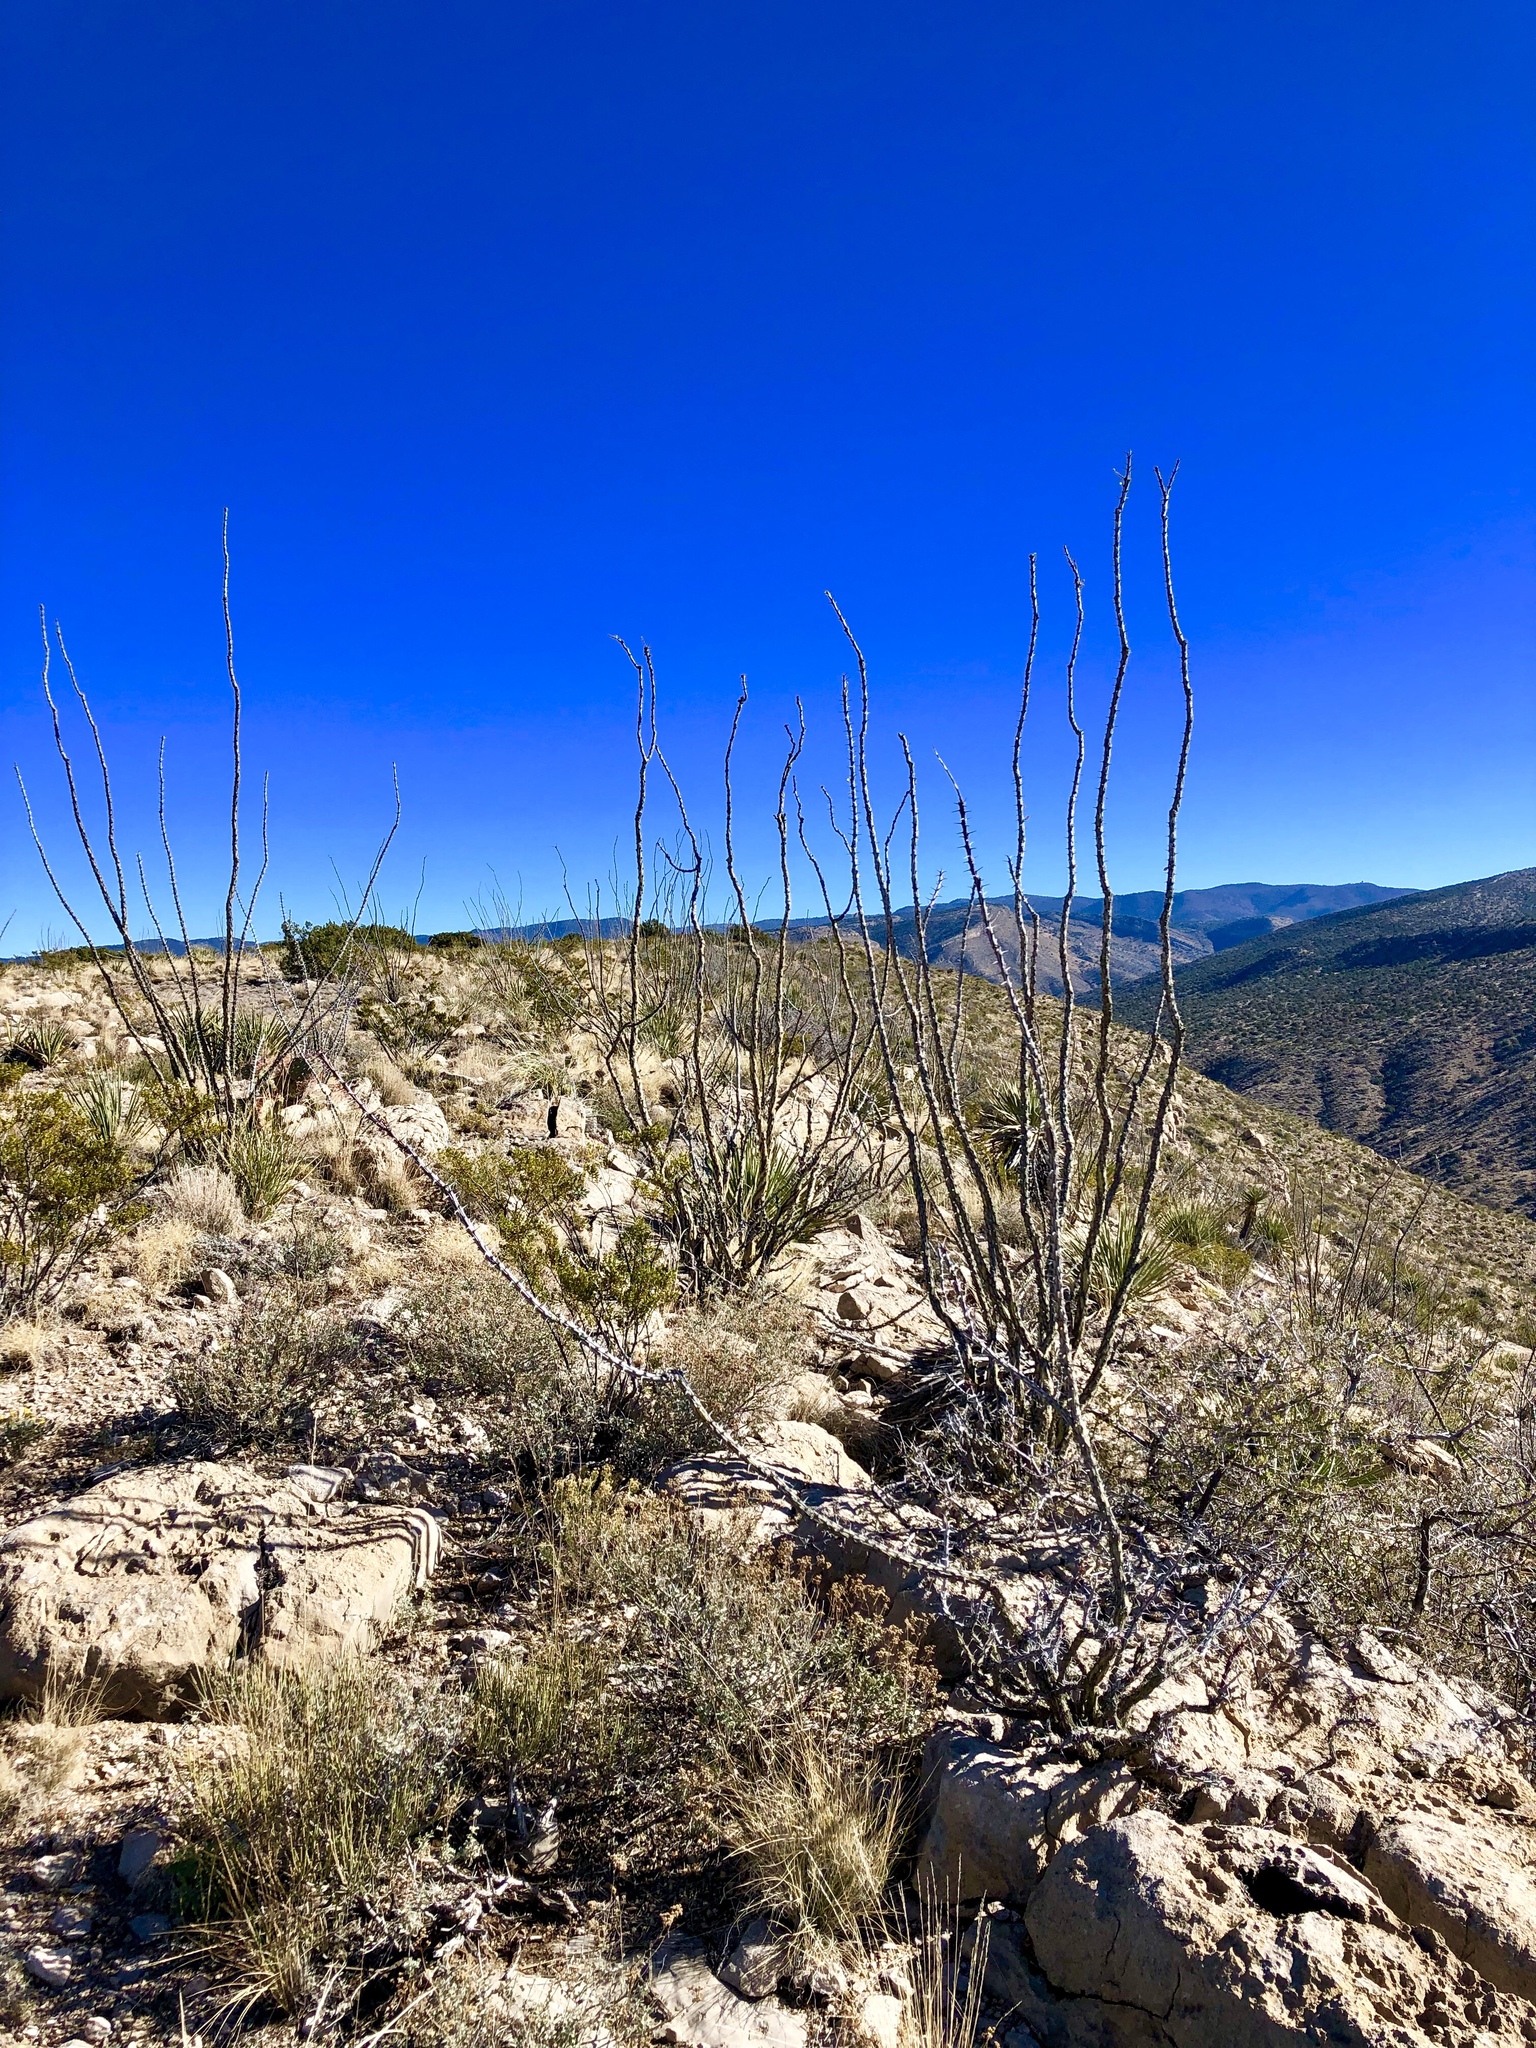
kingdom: Plantae
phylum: Tracheophyta
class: Magnoliopsida
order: Ericales
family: Fouquieriaceae
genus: Fouquieria
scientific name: Fouquieria splendens
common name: Vine-cactus
